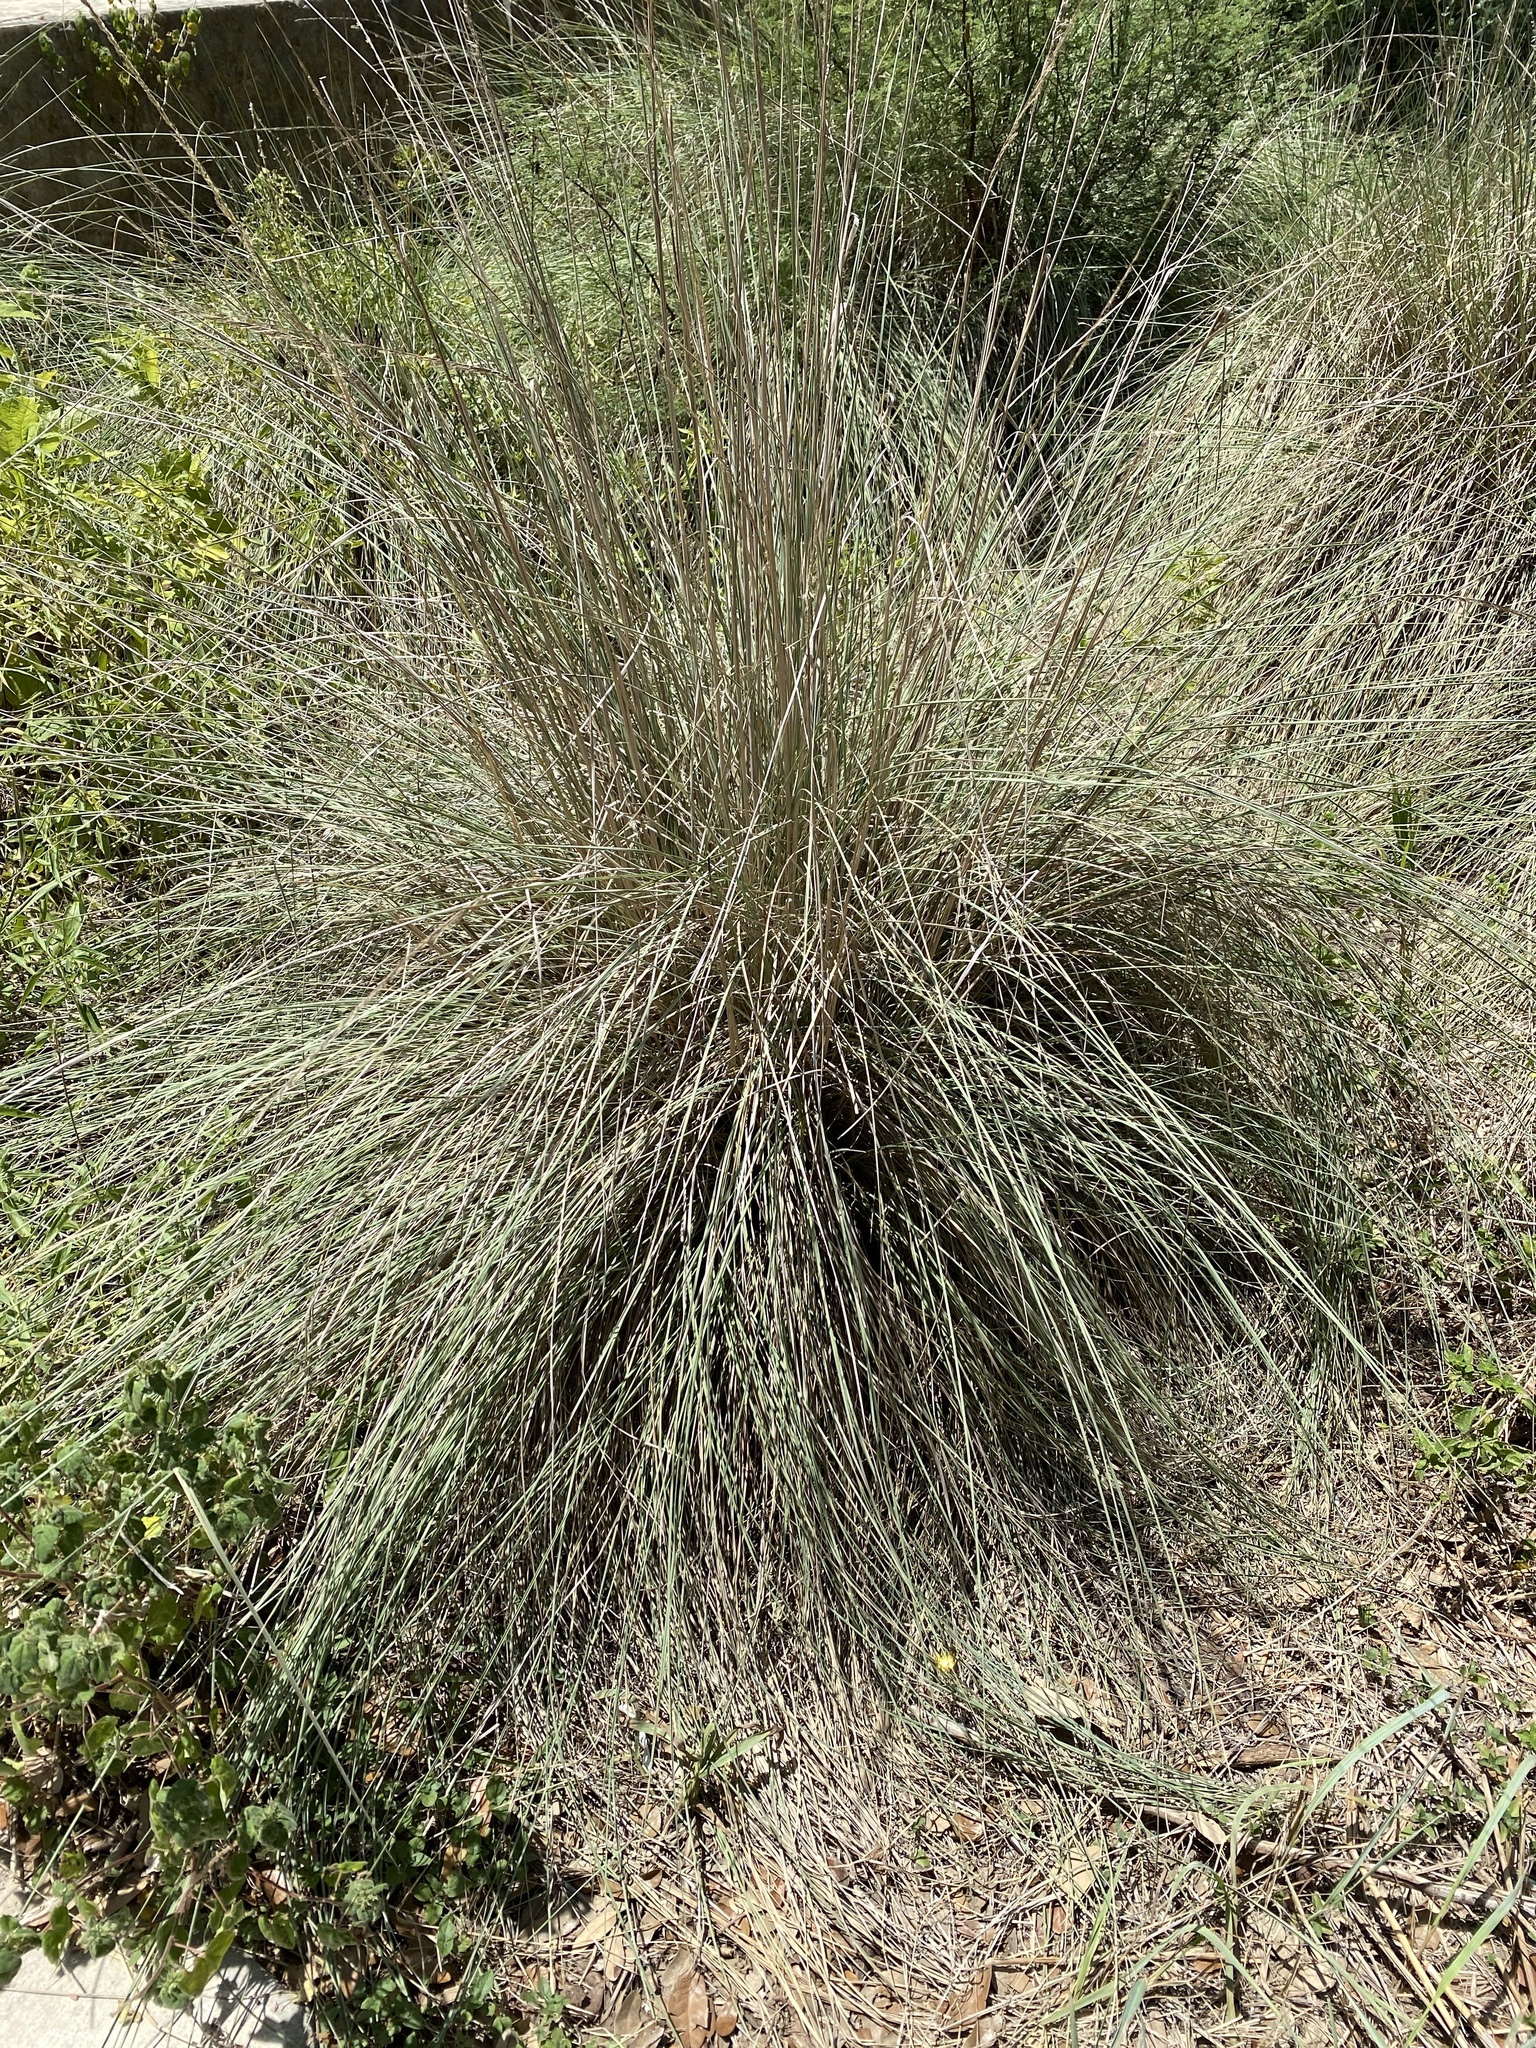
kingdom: Plantae
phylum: Tracheophyta
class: Liliopsida
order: Poales
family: Poaceae
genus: Muhlenbergia
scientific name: Muhlenbergia lindheimeri
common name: Lindheimer's muhly
